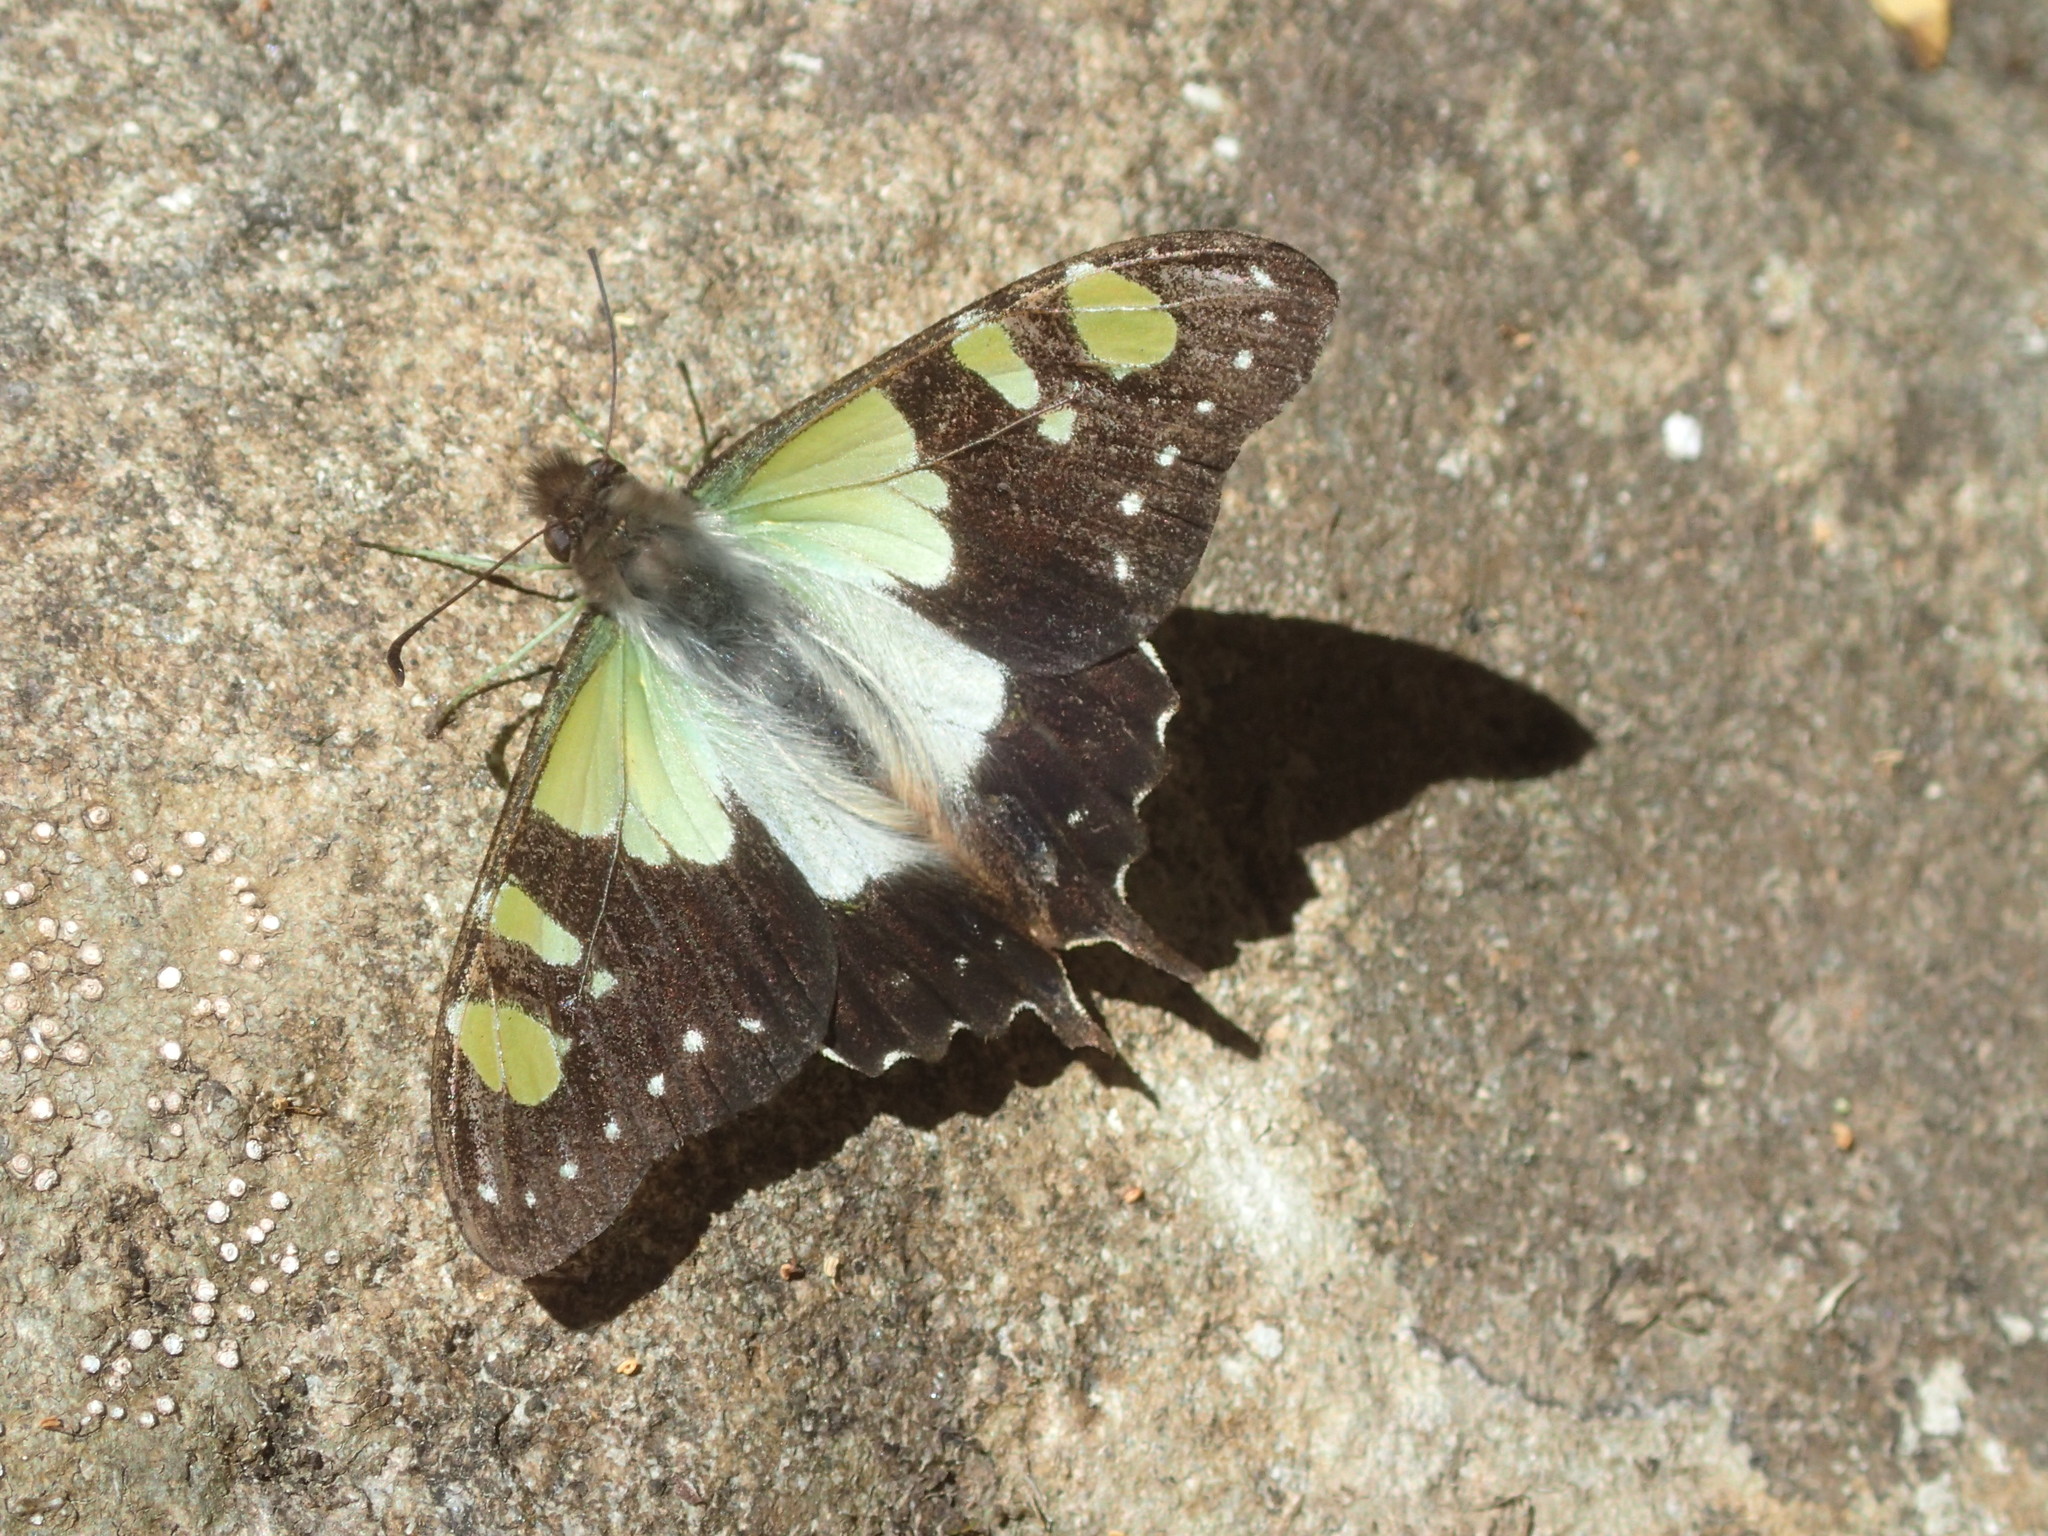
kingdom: Animalia
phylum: Arthropoda
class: Insecta
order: Lepidoptera
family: Papilionidae
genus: Graphium
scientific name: Graphium macleayanus
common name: Macleay's swallowtail
